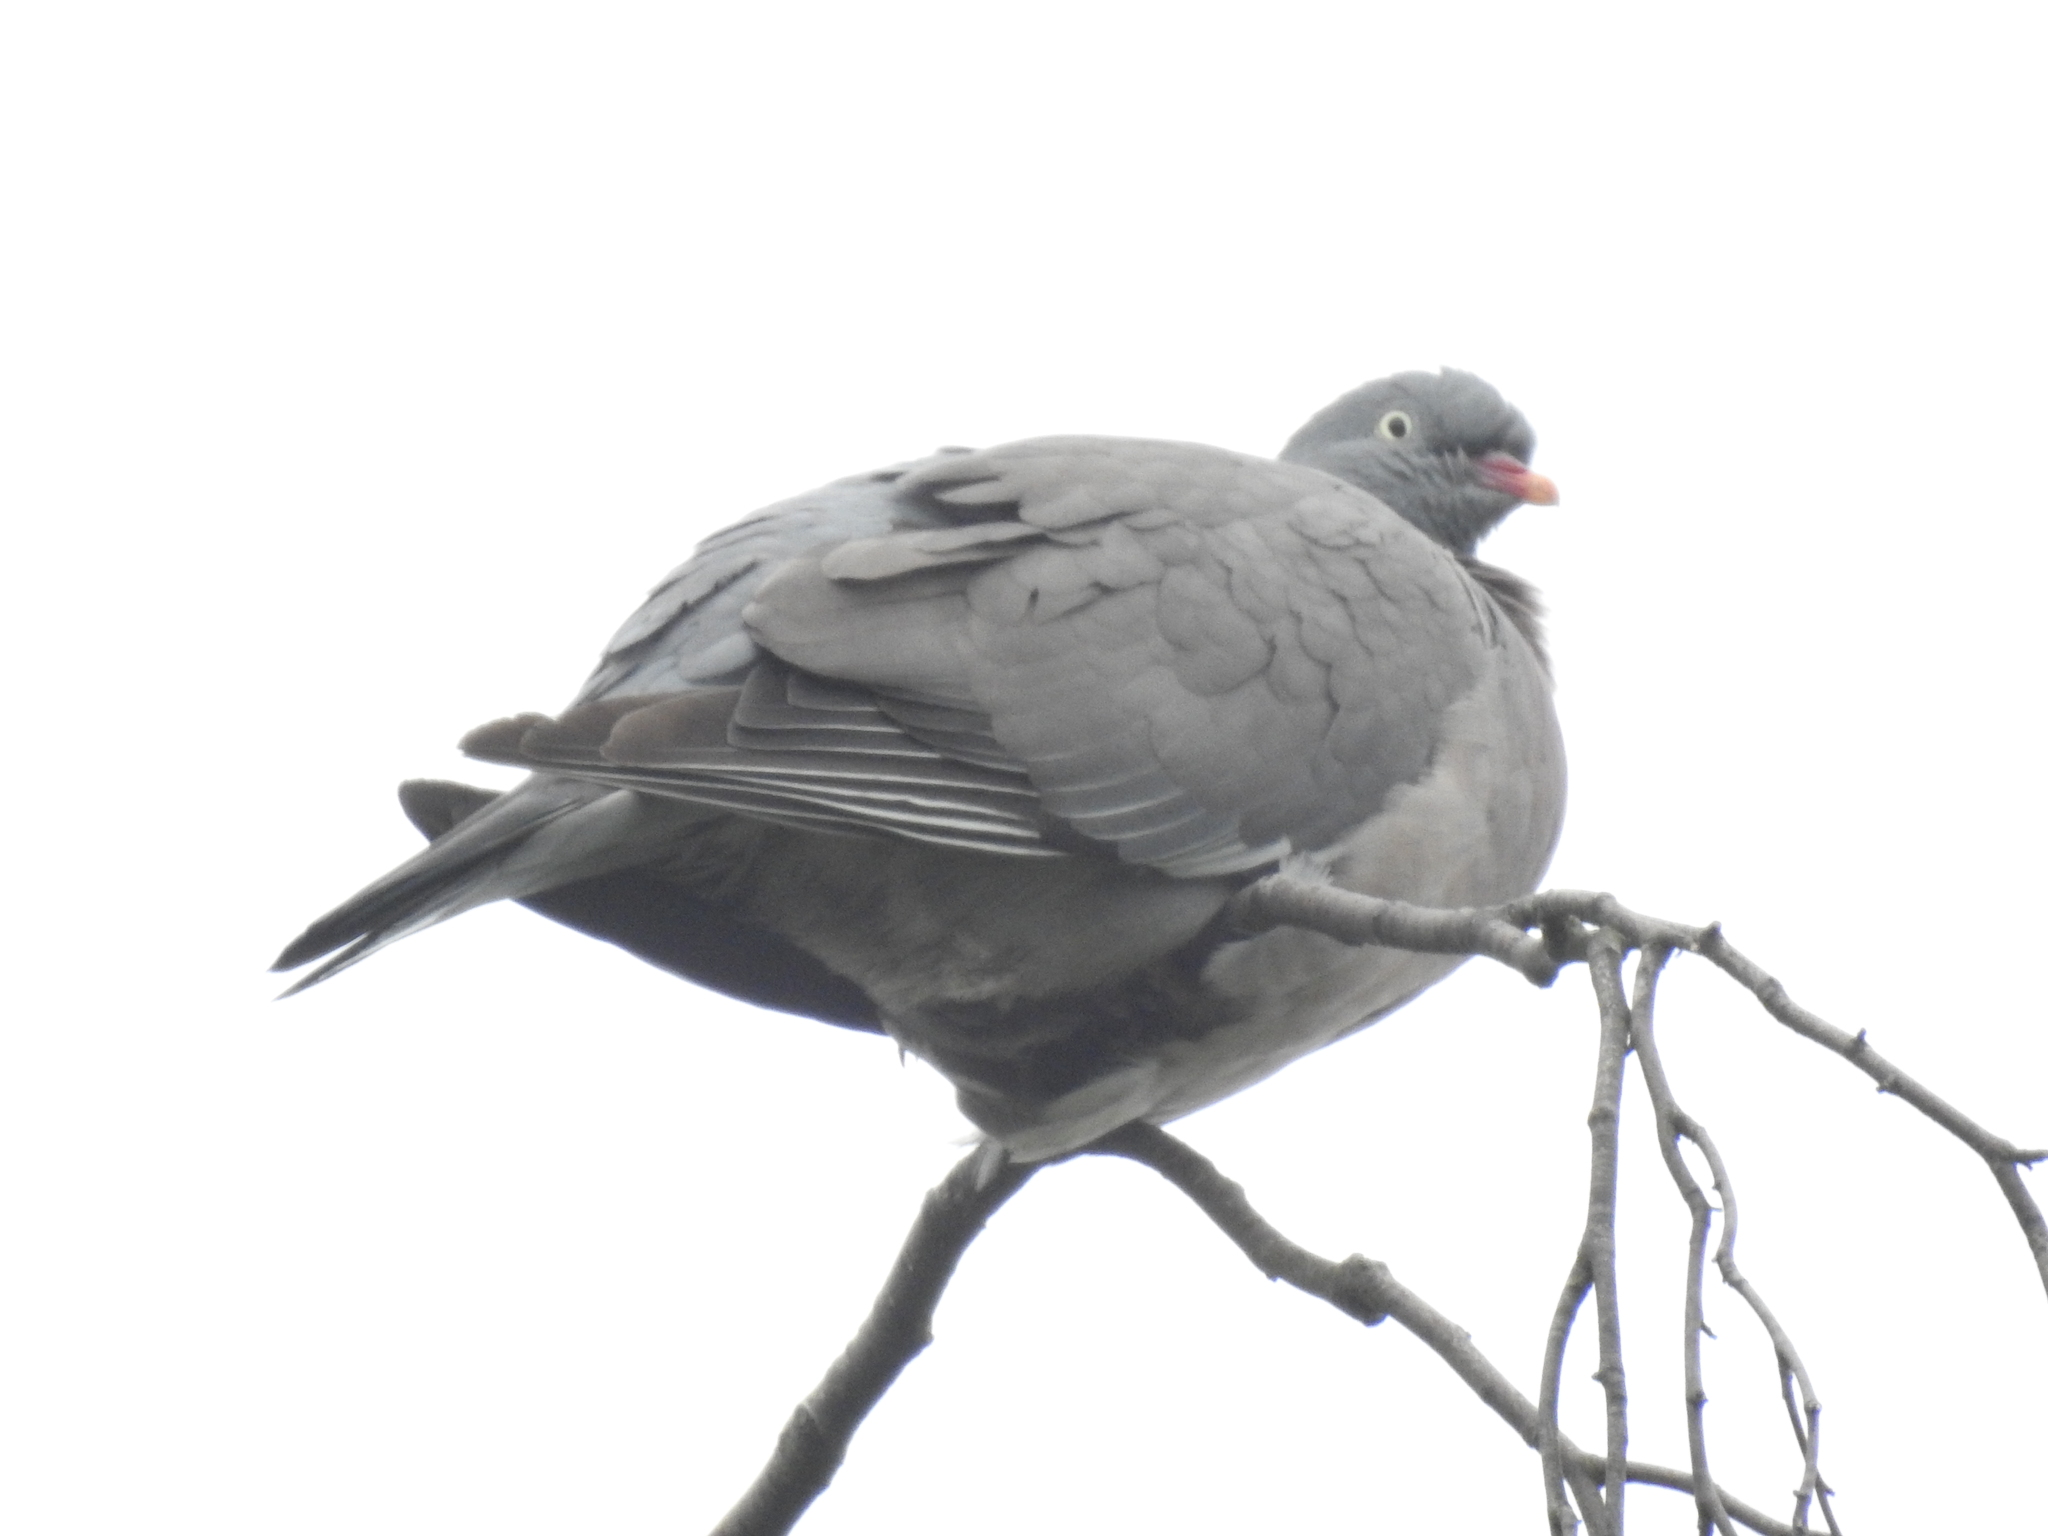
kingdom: Animalia
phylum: Chordata
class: Aves
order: Columbiformes
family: Columbidae
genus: Columba
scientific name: Columba palumbus
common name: Common wood pigeon
